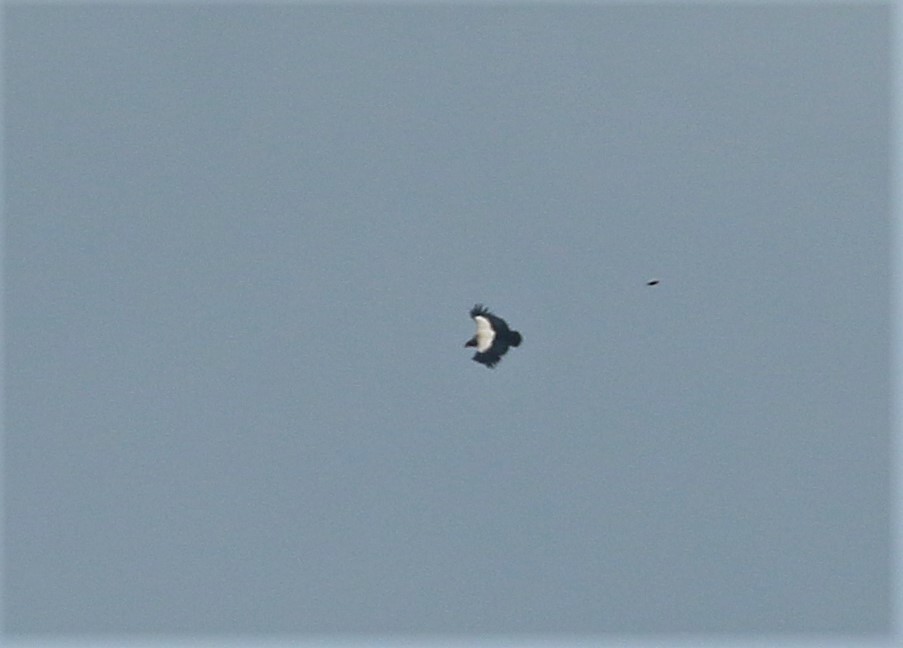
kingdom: Animalia
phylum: Chordata
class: Aves
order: Accipitriformes
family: Cathartidae
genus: Sarcoramphus
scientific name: Sarcoramphus papa
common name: King vulture
